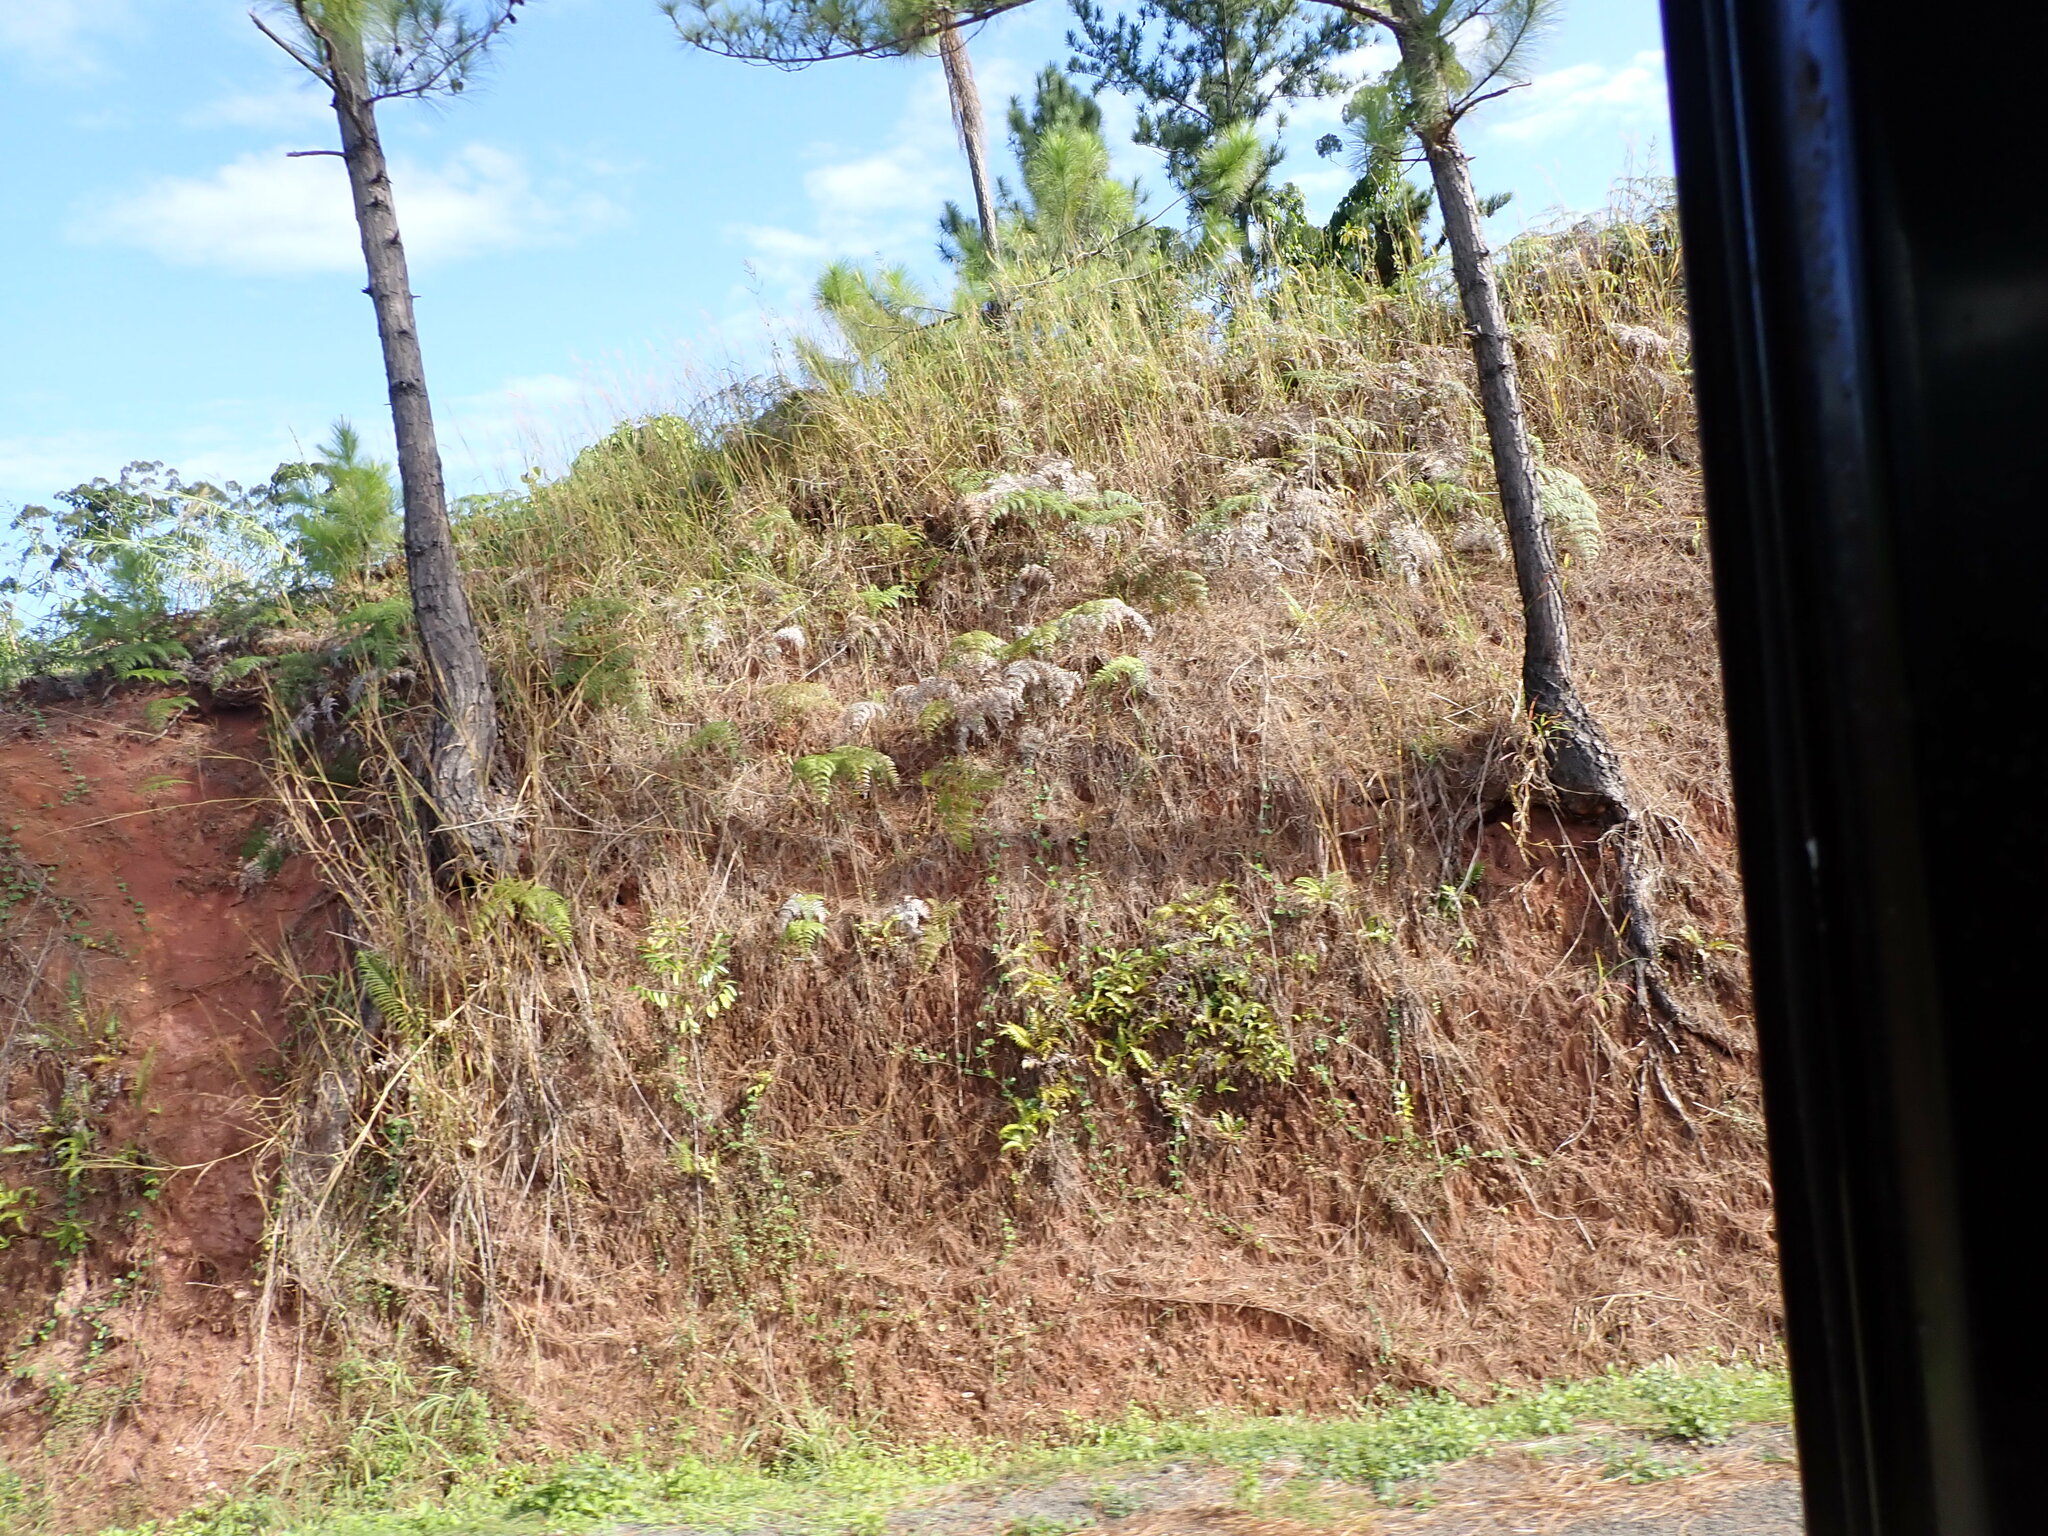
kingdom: Plantae
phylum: Tracheophyta
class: Polypodiopsida
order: Polypodiales
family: Dennstaedtiaceae
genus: Pteridium
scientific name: Pteridium esculentum
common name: Bracken fern
